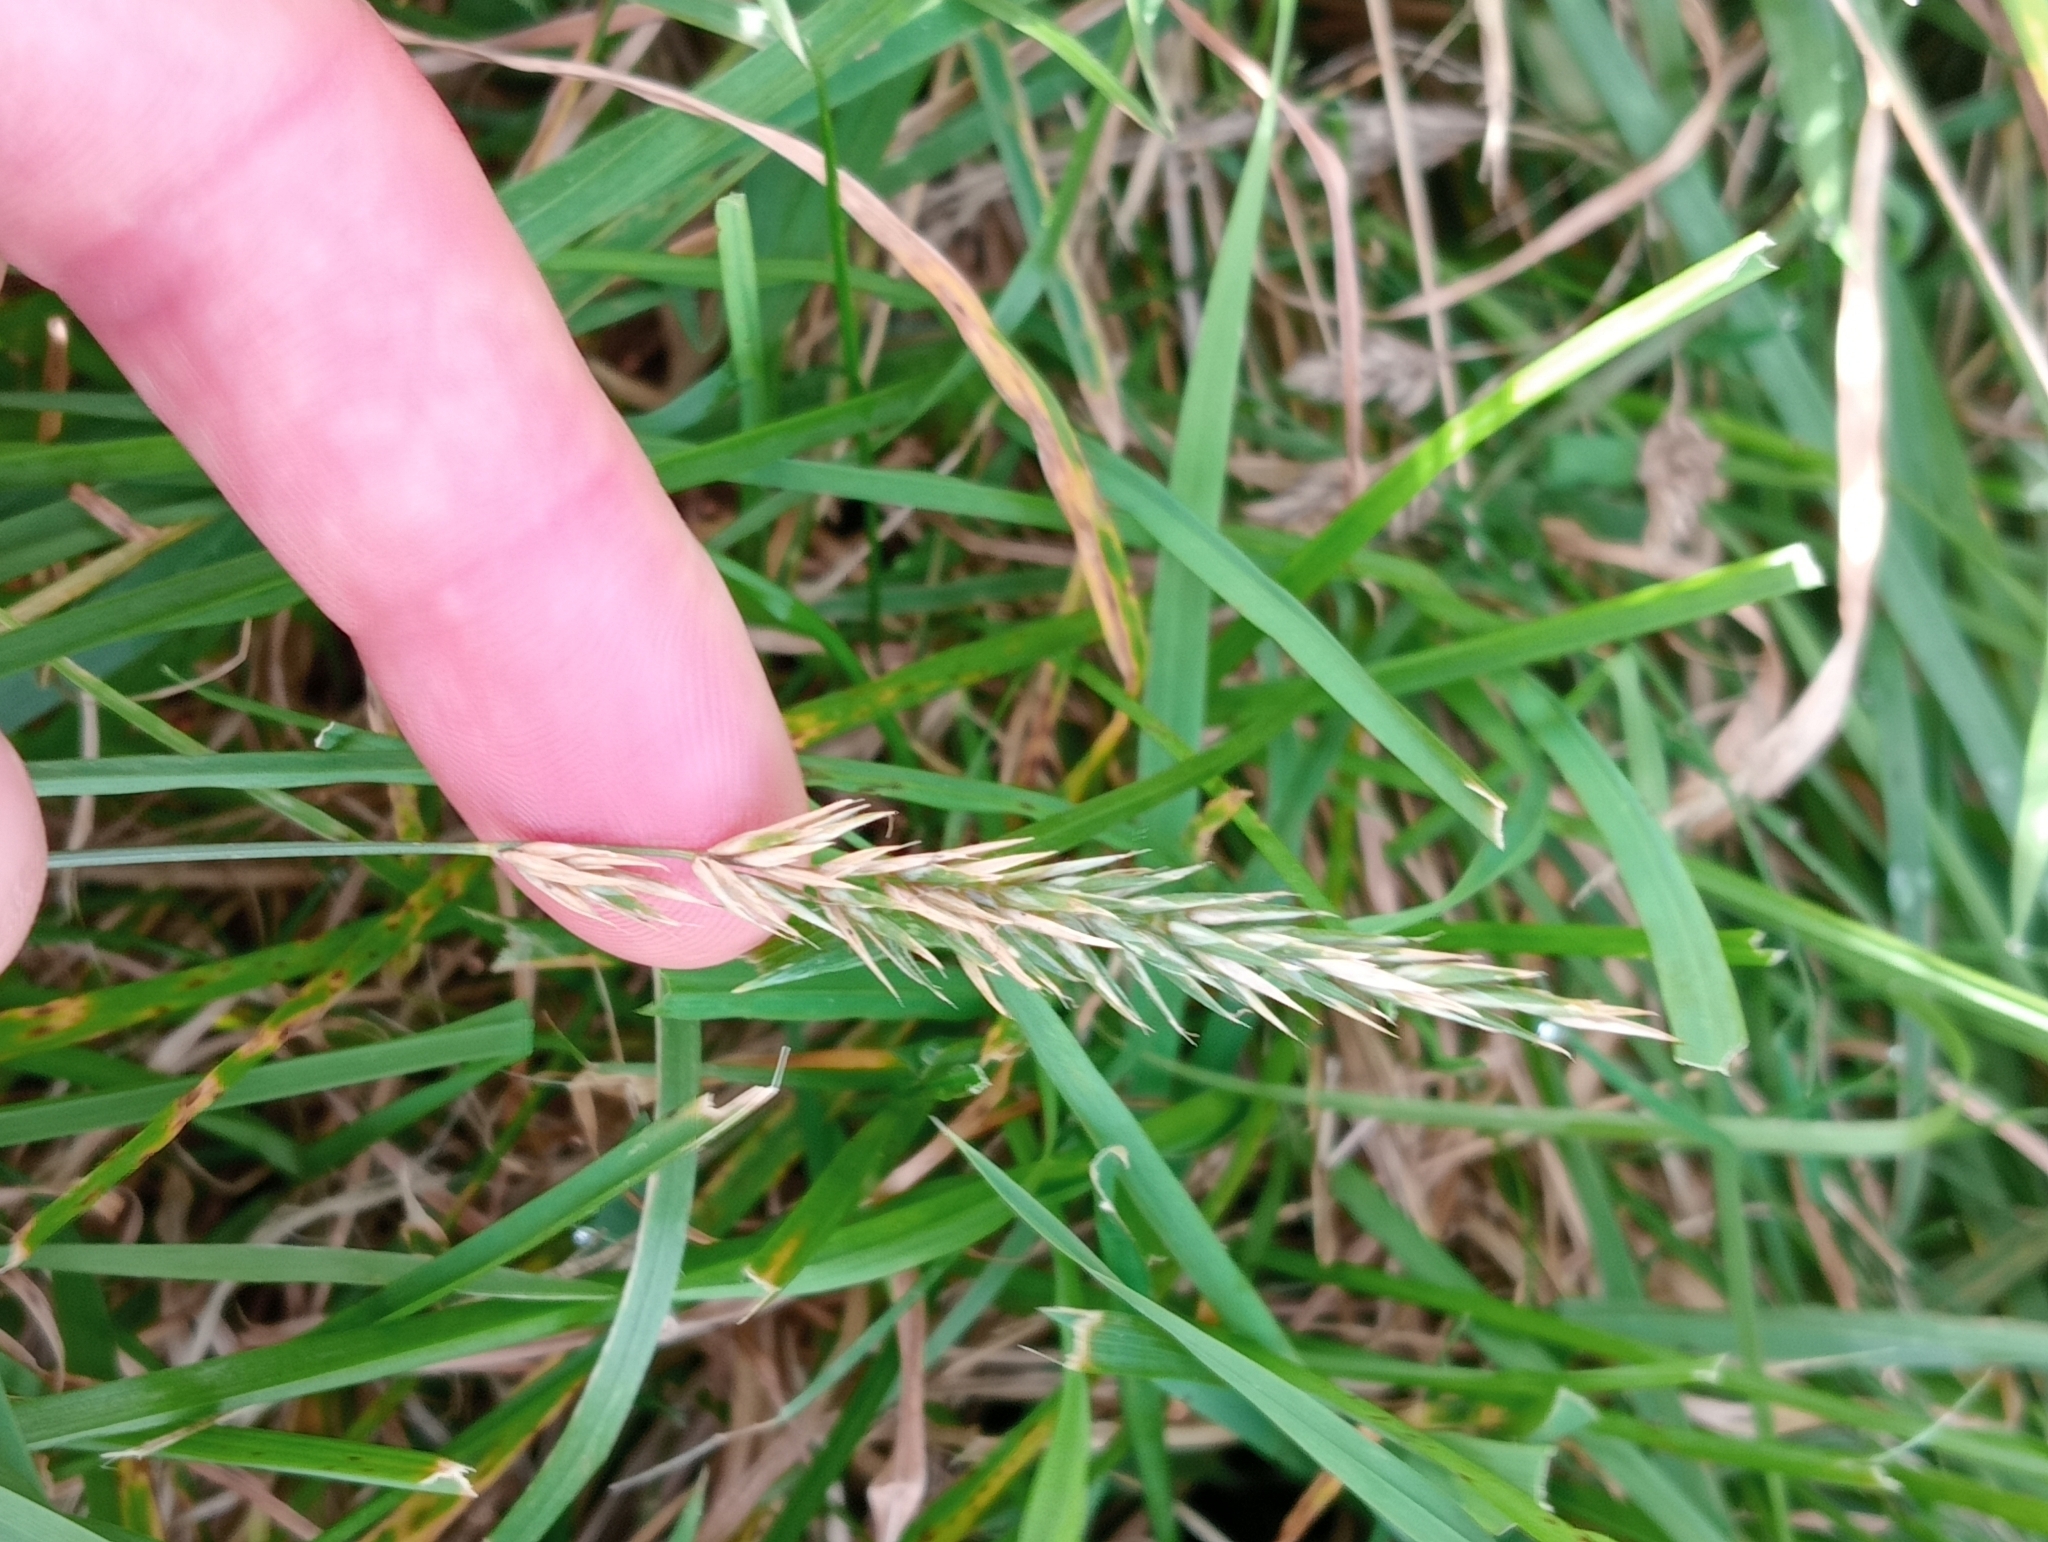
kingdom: Plantae
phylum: Tracheophyta
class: Liliopsida
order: Poales
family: Poaceae
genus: Anthoxanthum
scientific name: Anthoxanthum odoratum
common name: Sweet vernalgrass
